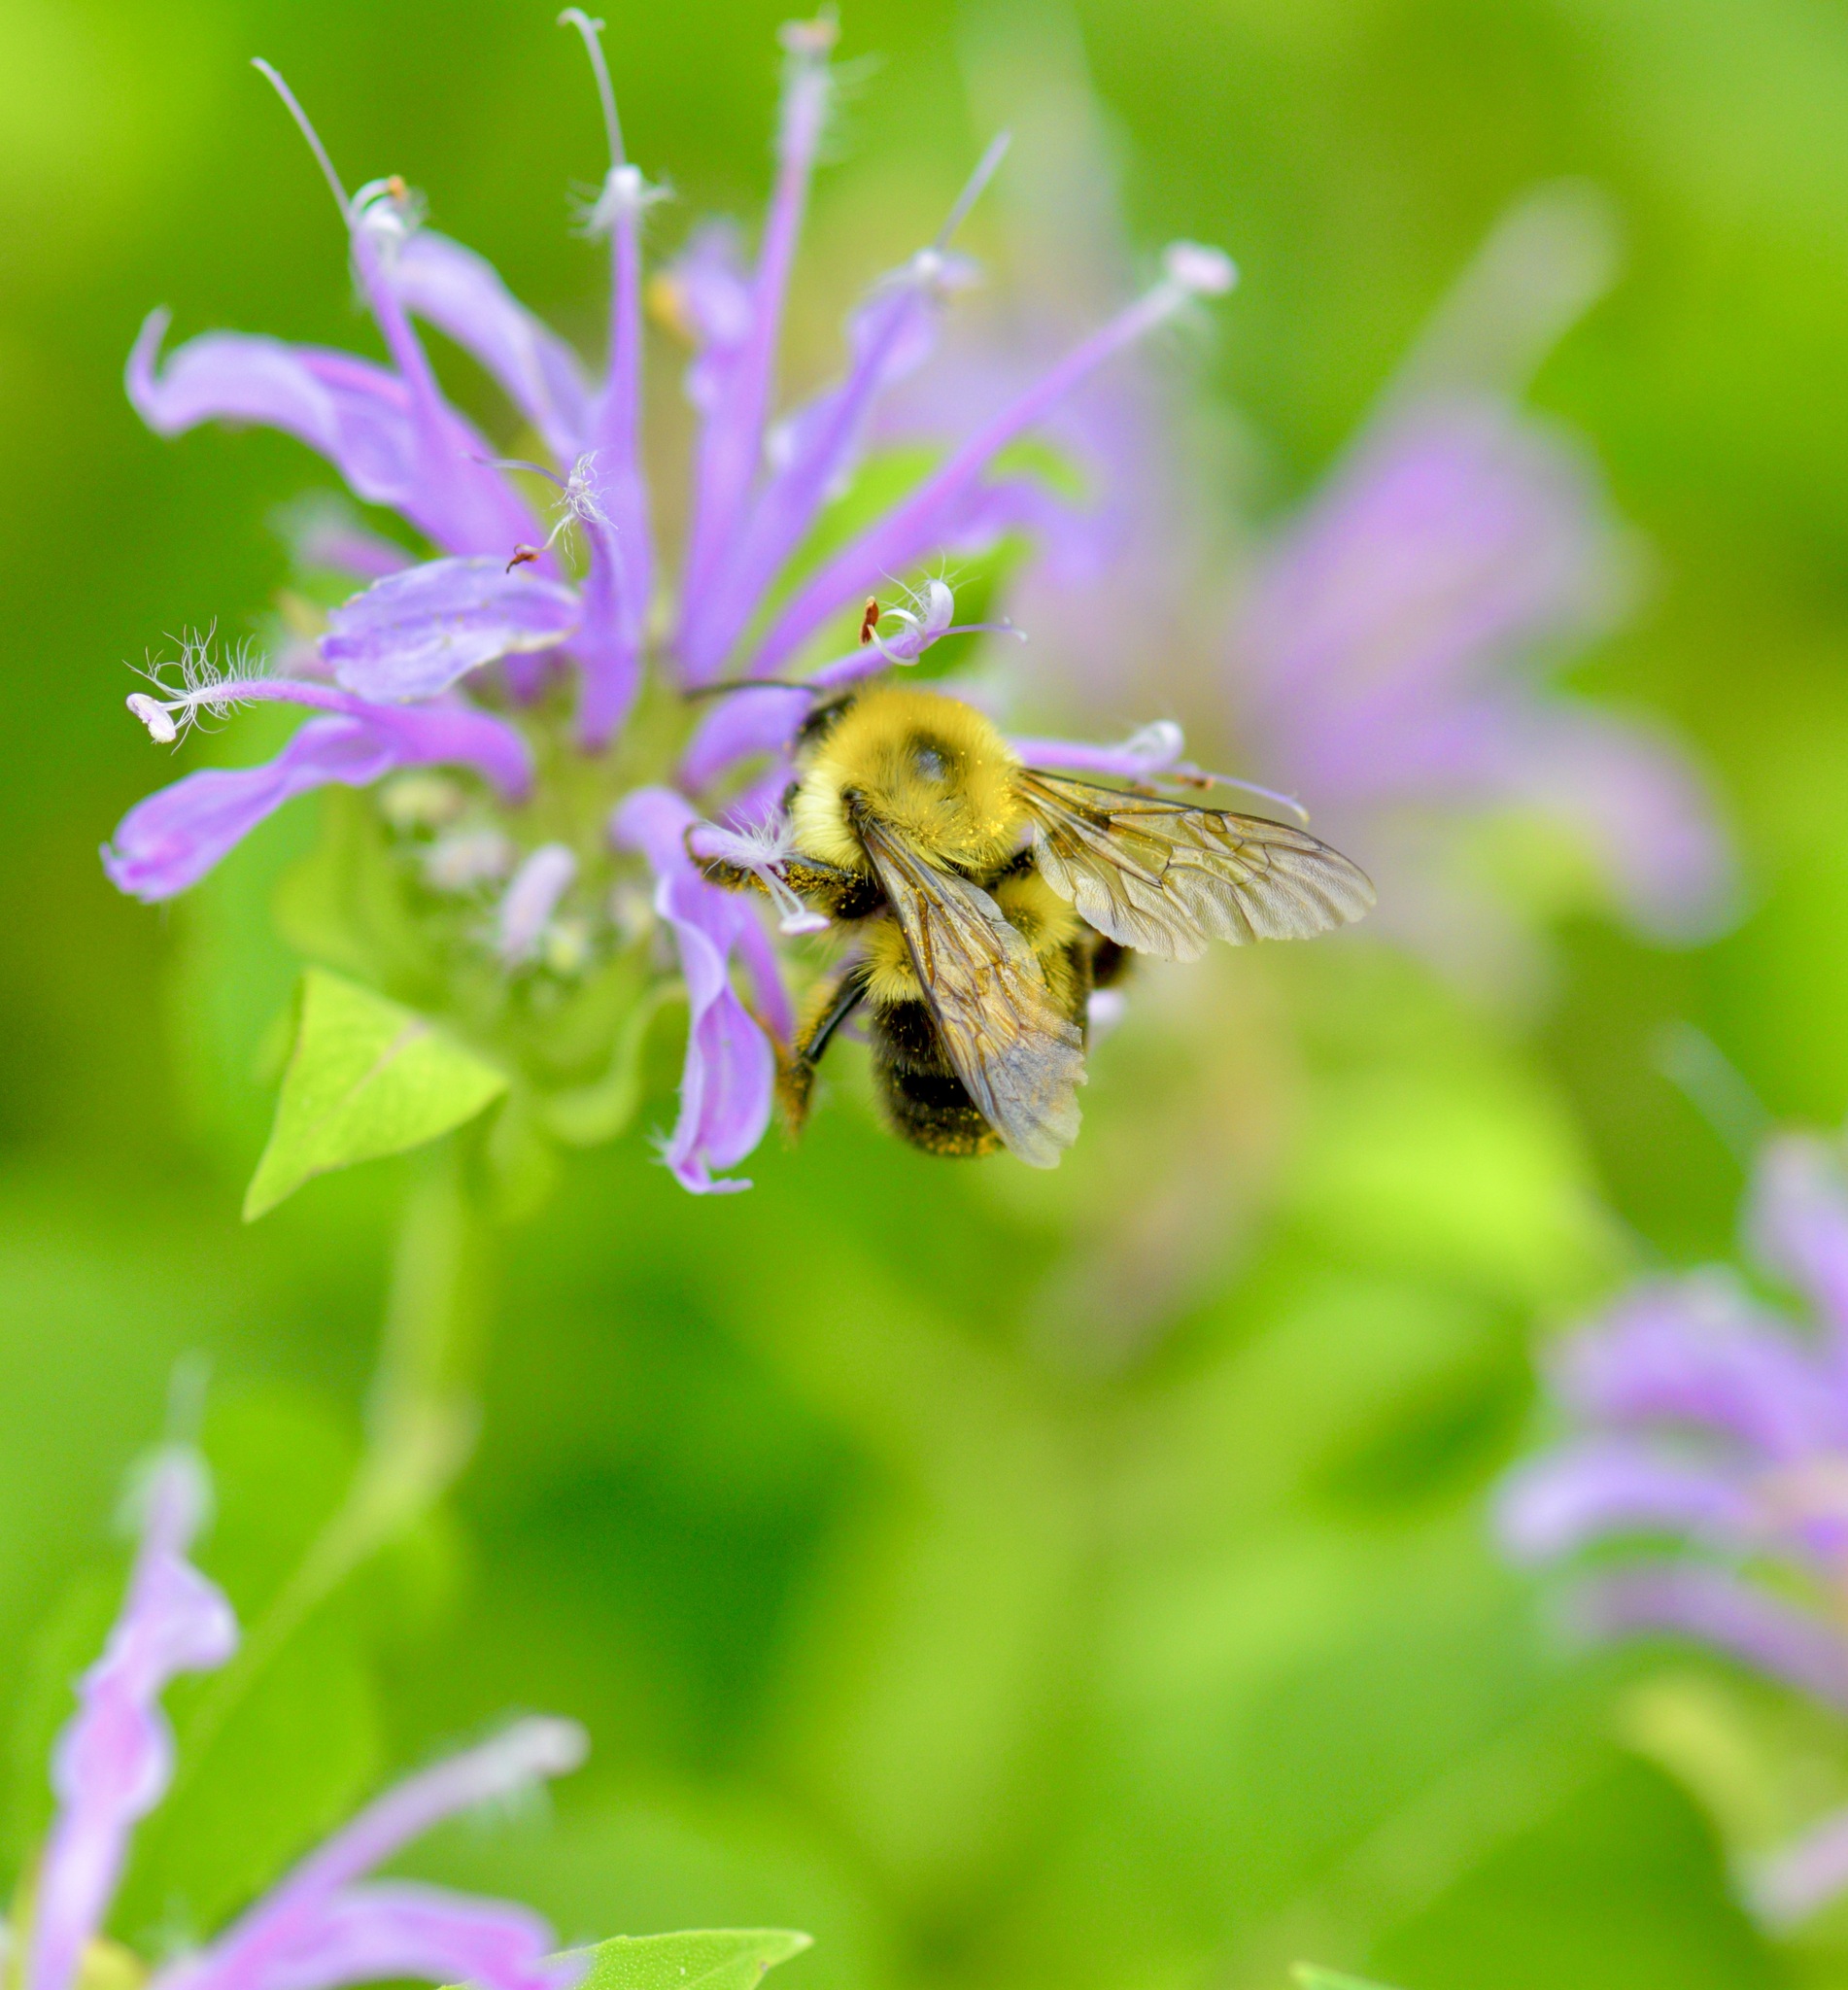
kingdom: Animalia
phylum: Arthropoda
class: Insecta
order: Hymenoptera
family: Apidae
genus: Bombus
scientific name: Bombus bimaculatus
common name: Two-spotted bumble bee
